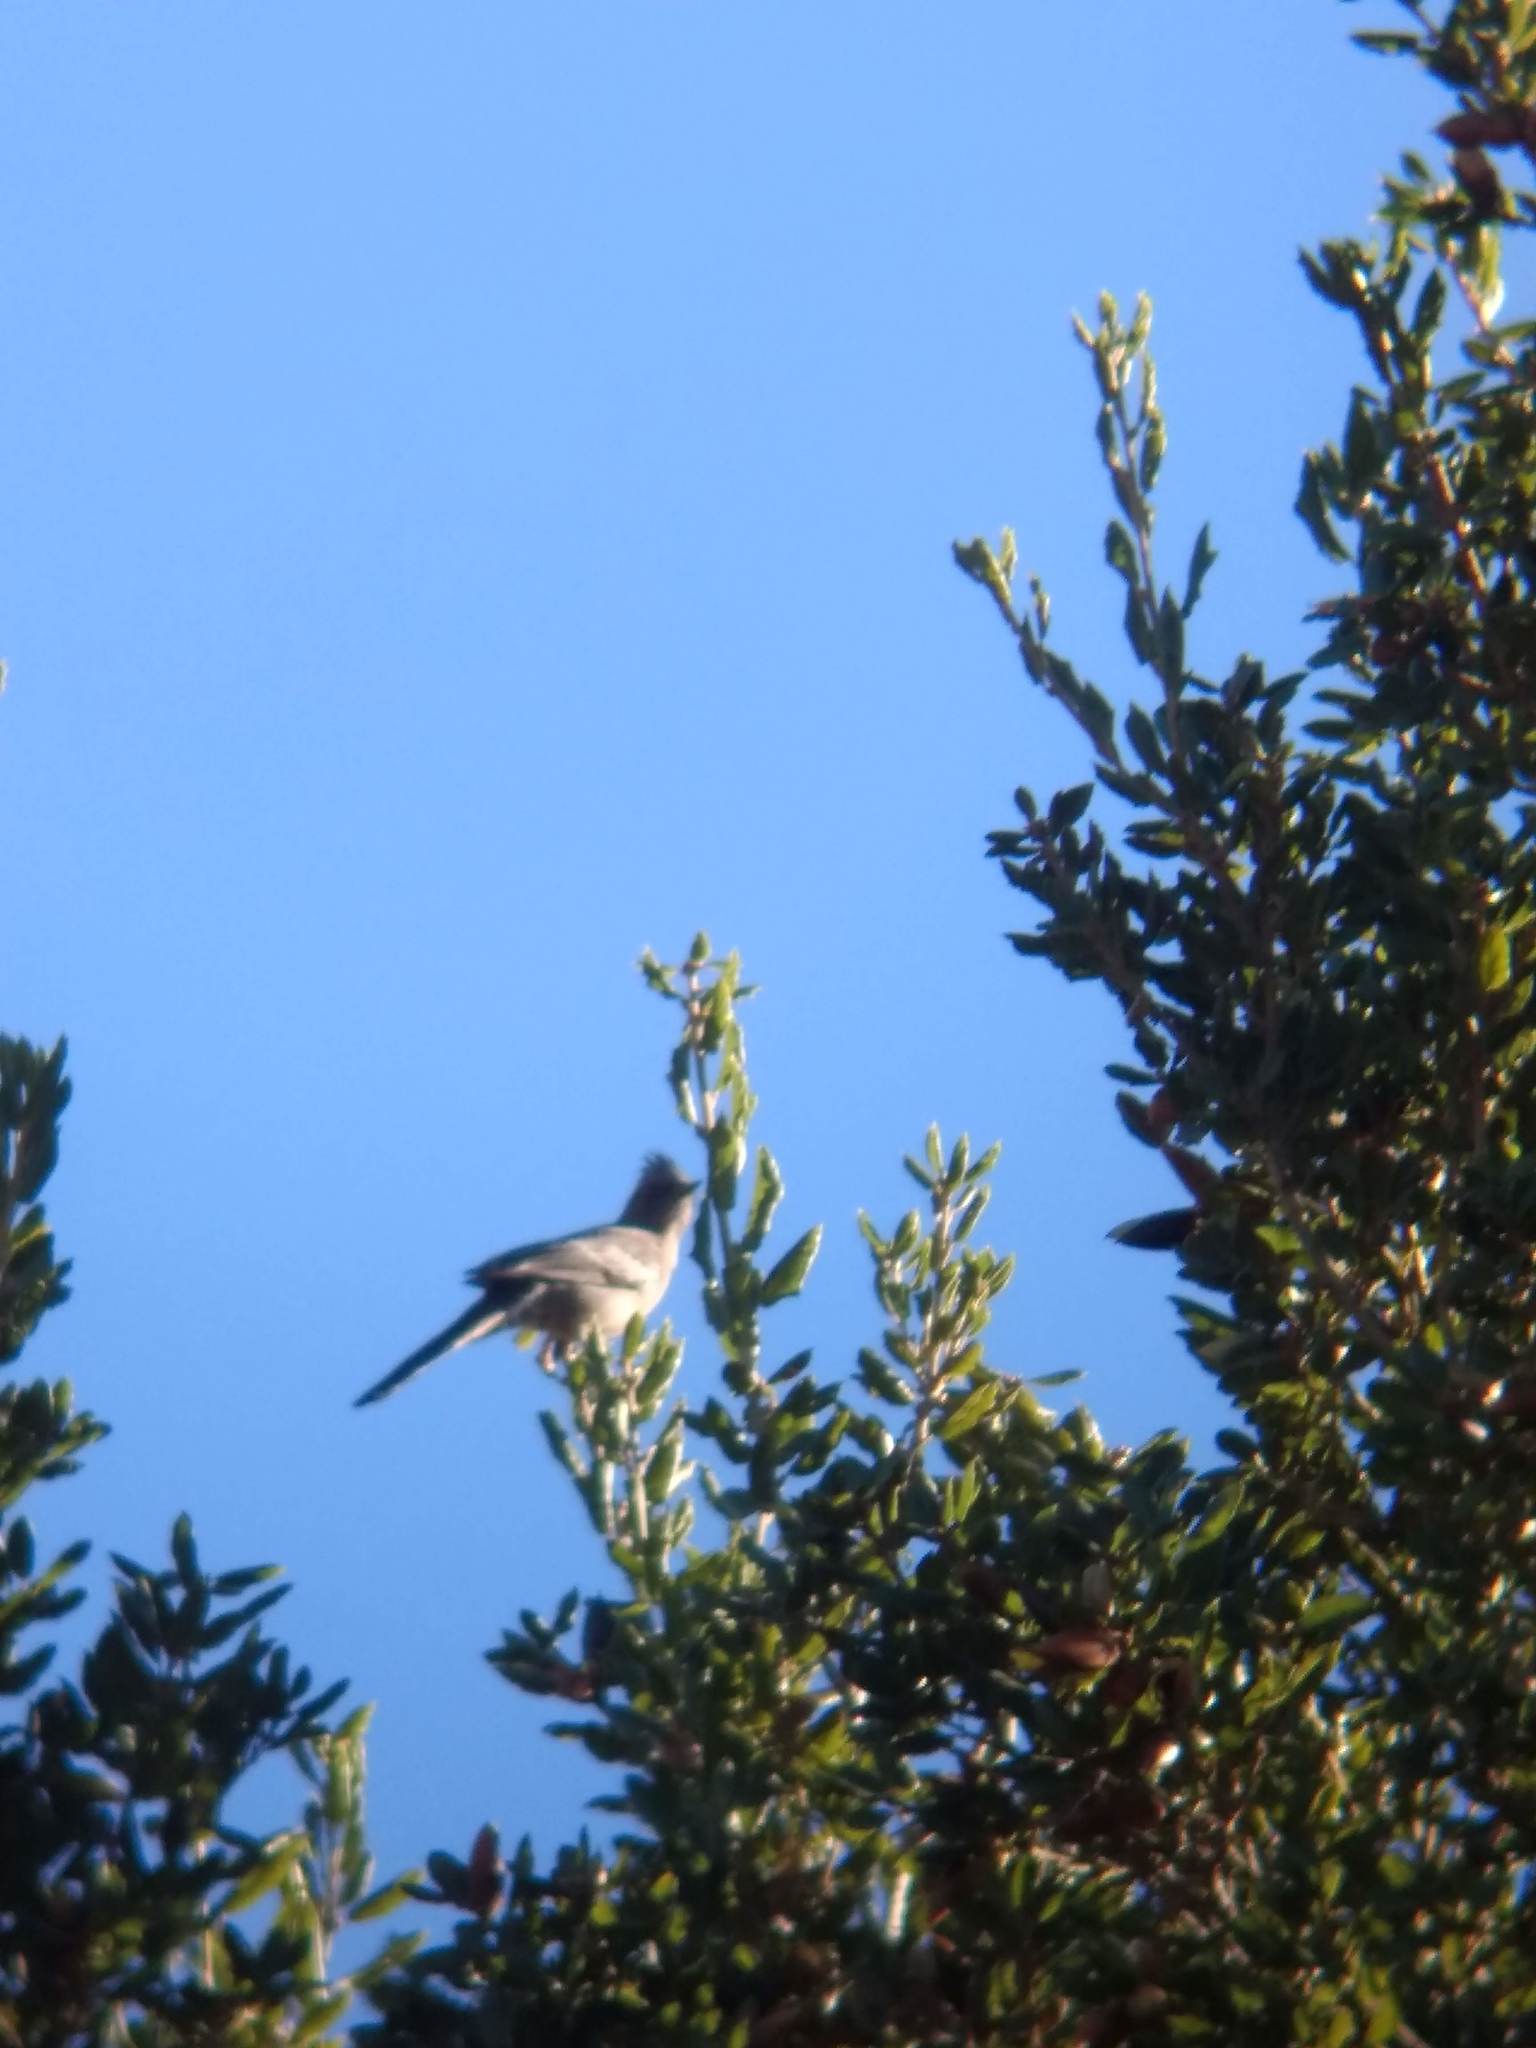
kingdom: Animalia
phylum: Chordata
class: Aves
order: Passeriformes
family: Ptilogonatidae
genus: Phainopepla
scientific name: Phainopepla nitens
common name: Phainopepla
